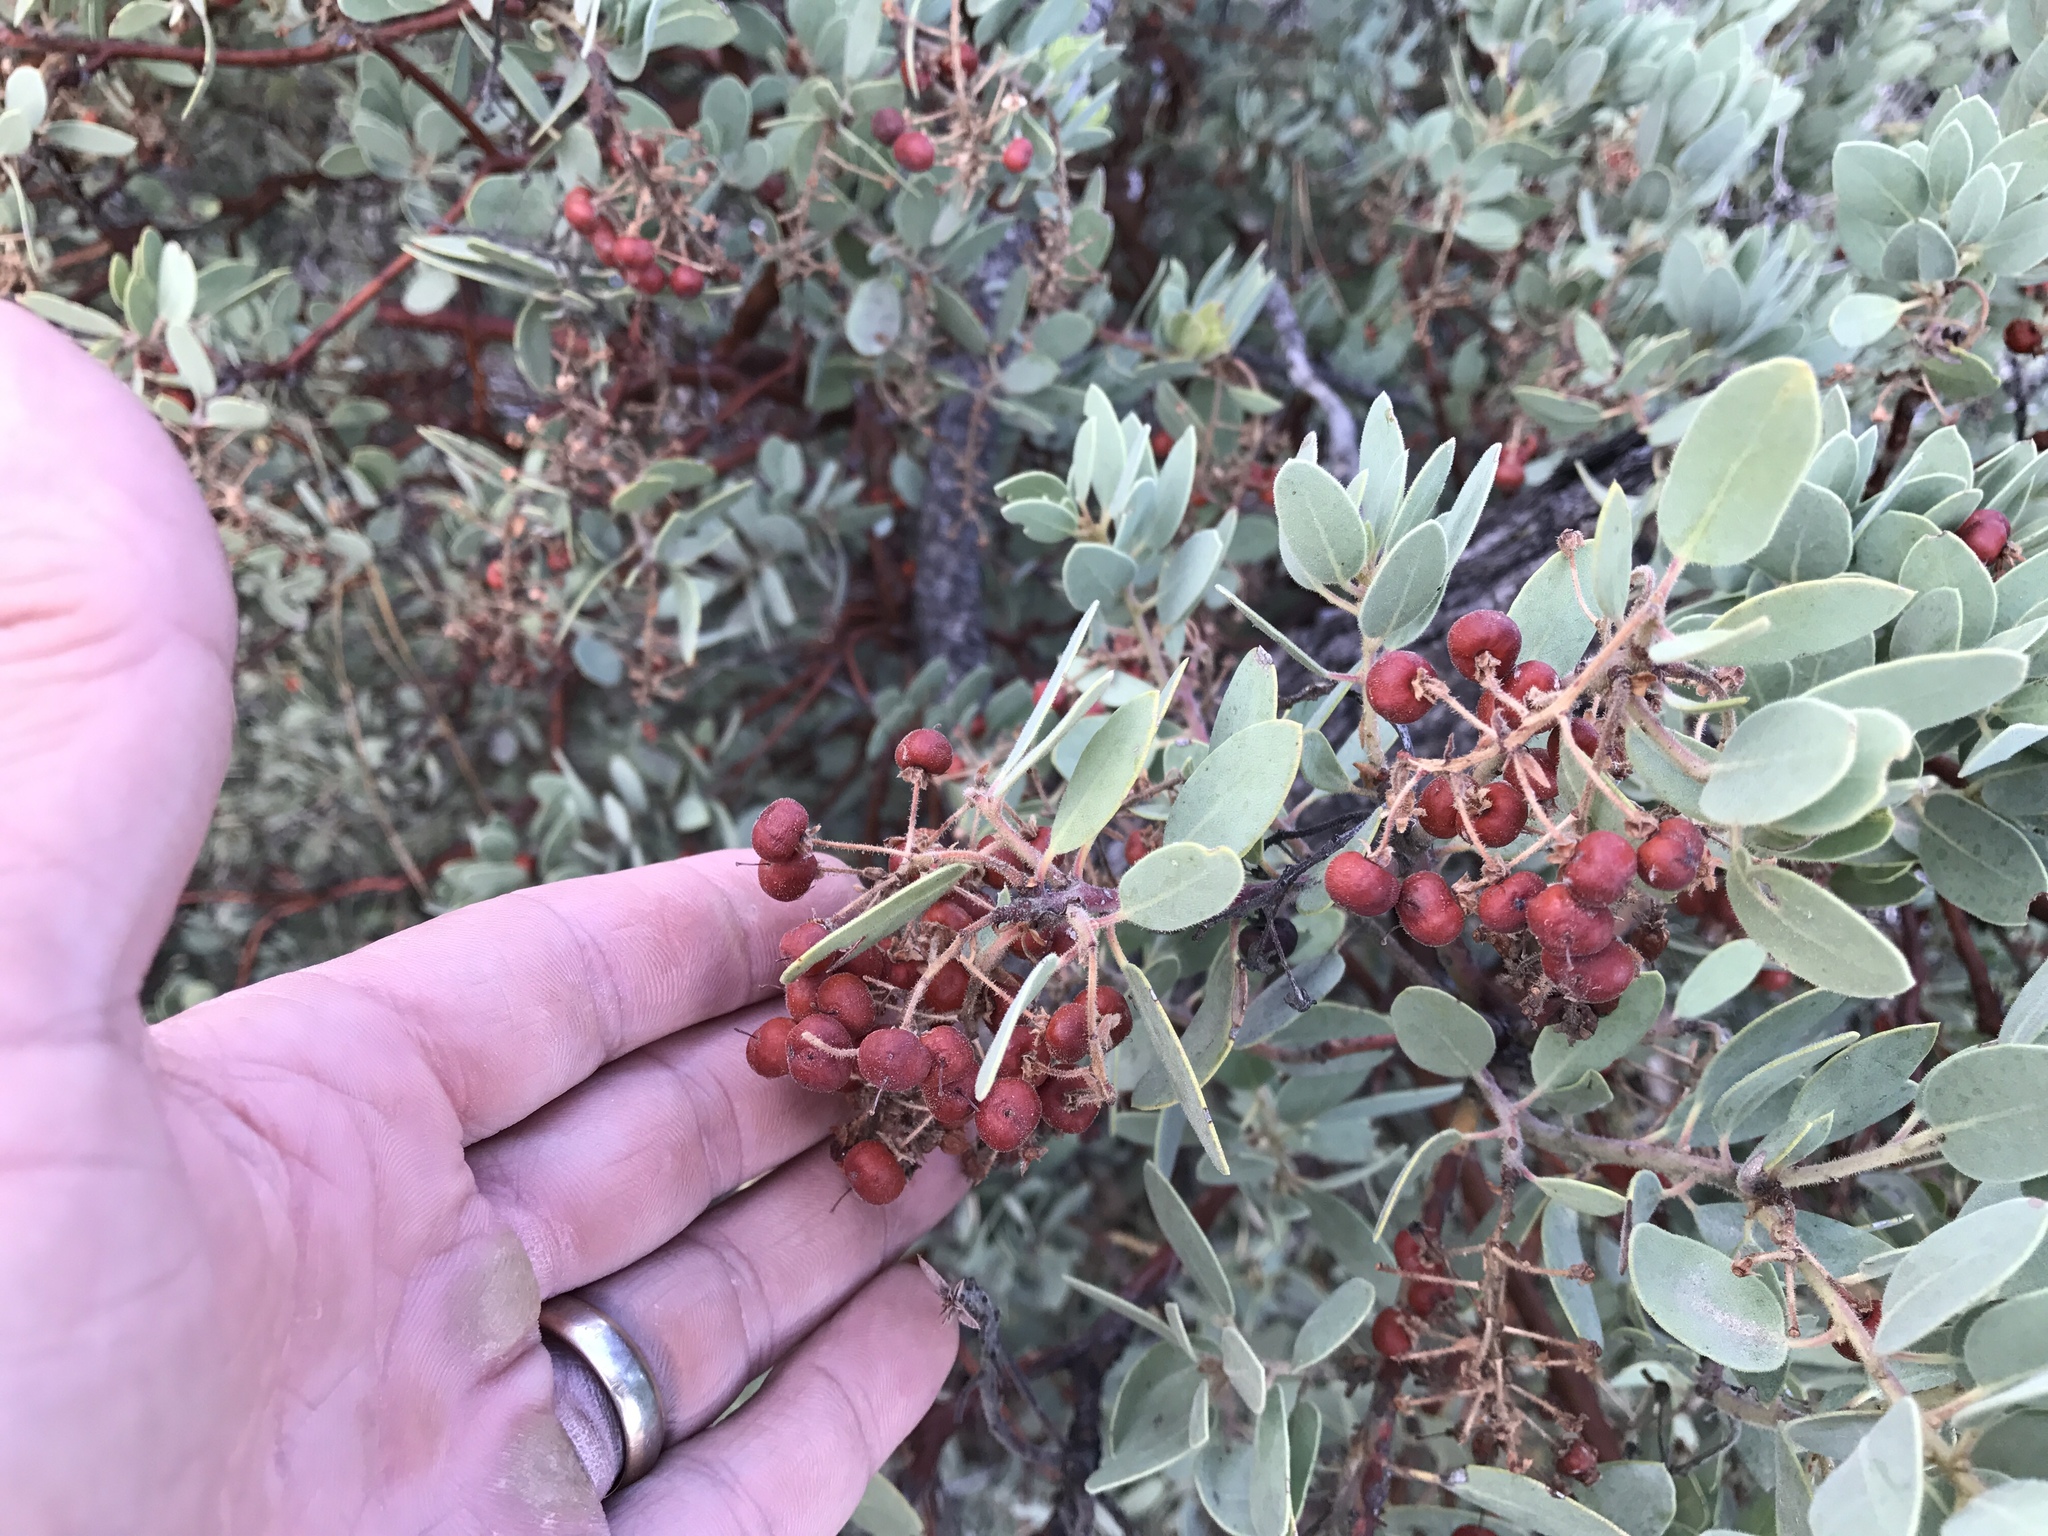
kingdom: Plantae
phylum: Tracheophyta
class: Magnoliopsida
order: Ericales
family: Ericaceae
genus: Arctostaphylos
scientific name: Arctostaphylos pringlei
